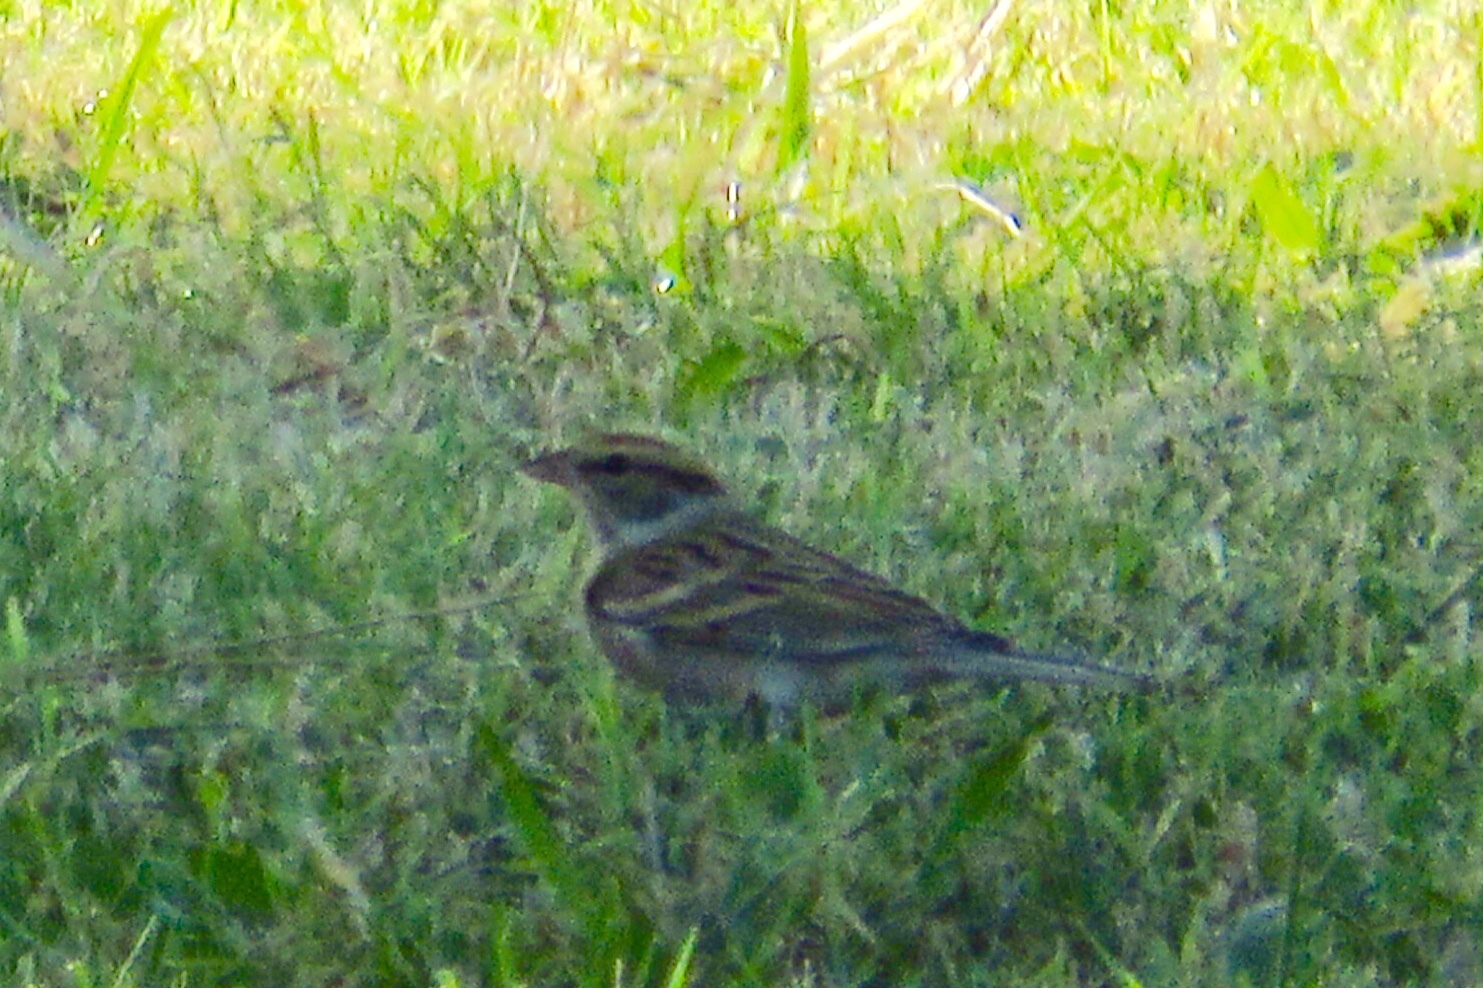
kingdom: Animalia
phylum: Chordata
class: Aves
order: Passeriformes
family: Passerellidae
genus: Spizella
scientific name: Spizella passerina
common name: Chipping sparrow
